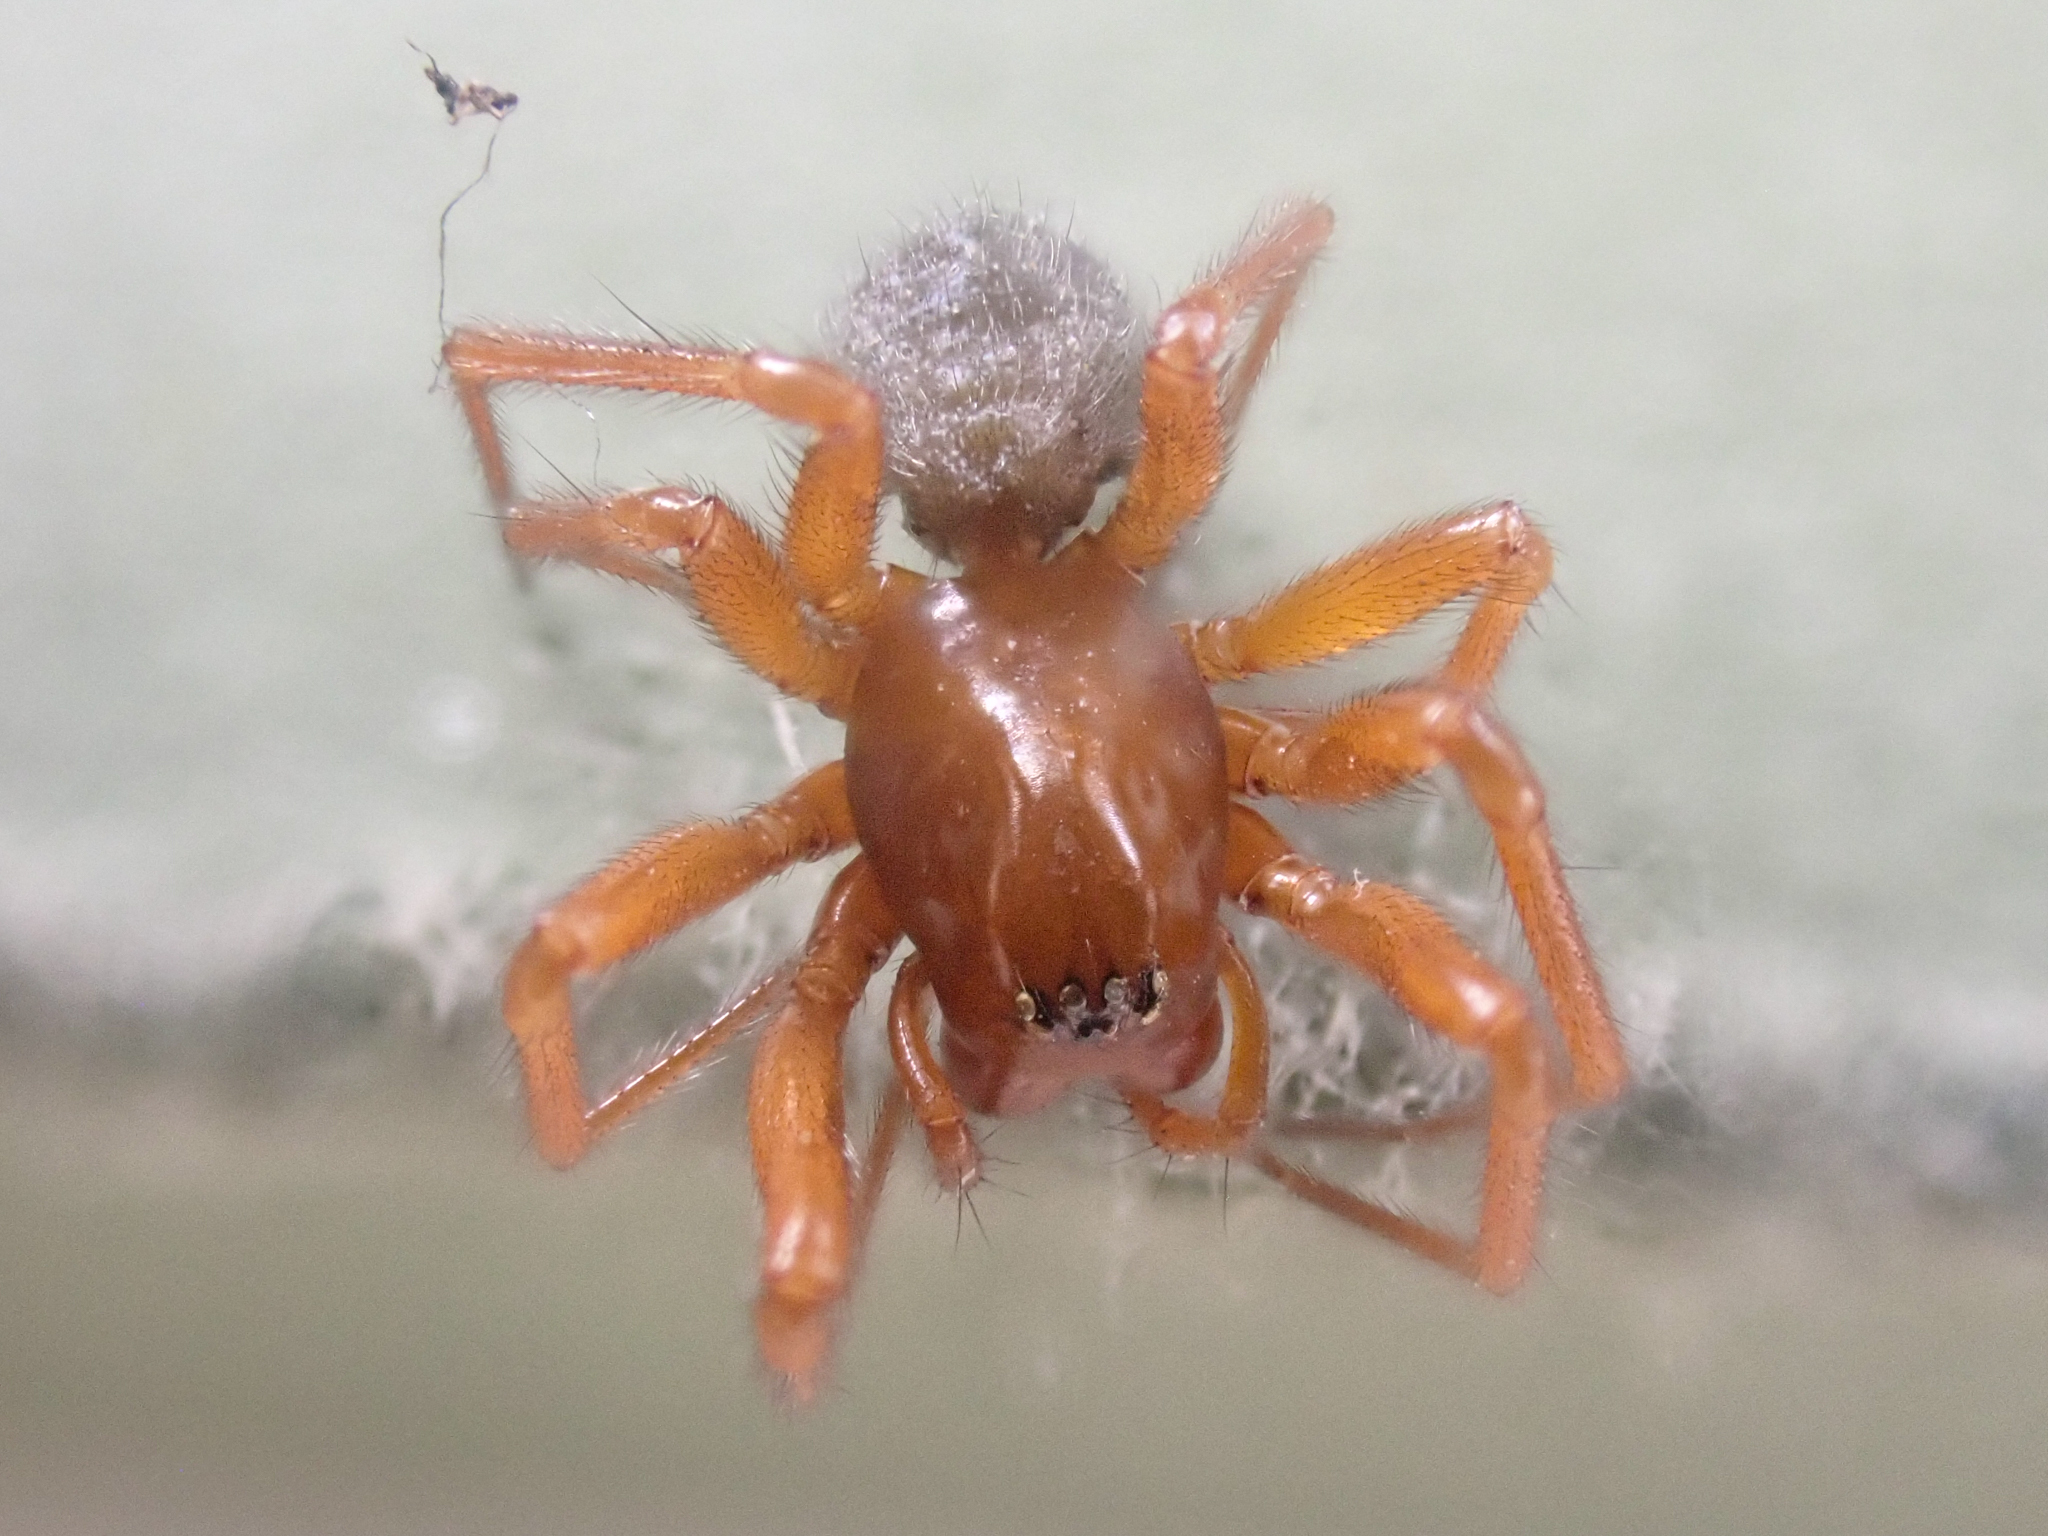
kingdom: Animalia
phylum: Arthropoda
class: Arachnida
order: Araneae
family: Linyphiidae
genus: Oreonetides
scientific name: Oreonetides vaginatus
